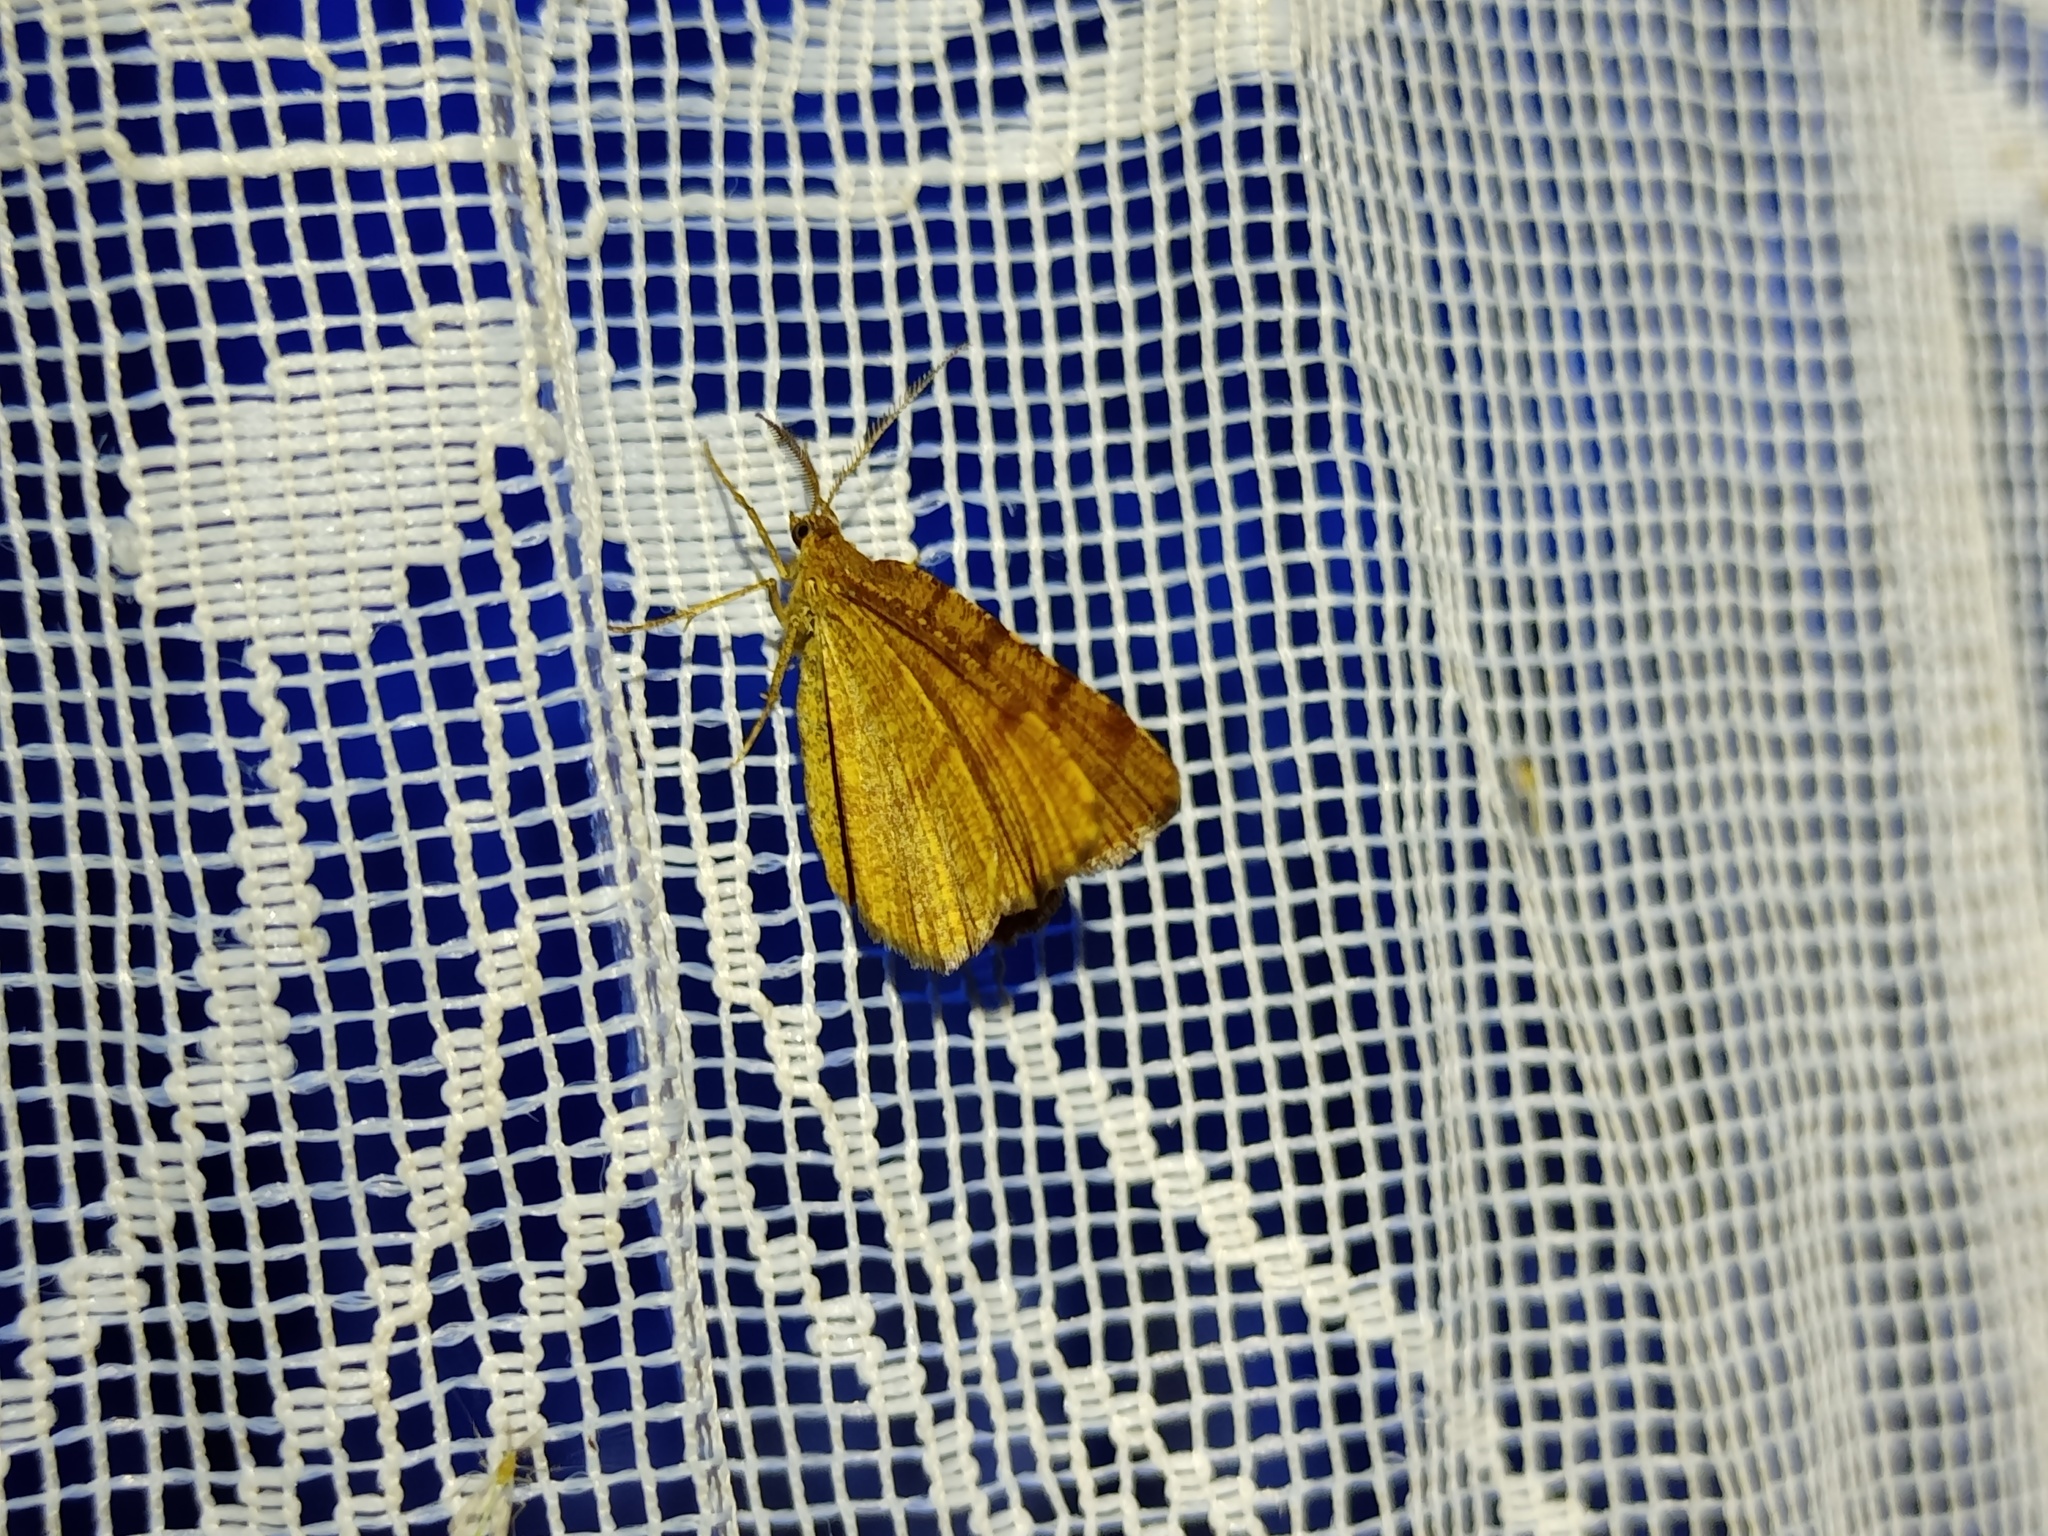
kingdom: Animalia
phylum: Arthropoda
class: Insecta
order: Lepidoptera
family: Geometridae
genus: Macaria
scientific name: Macaria brunneata
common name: Rannoch looper
